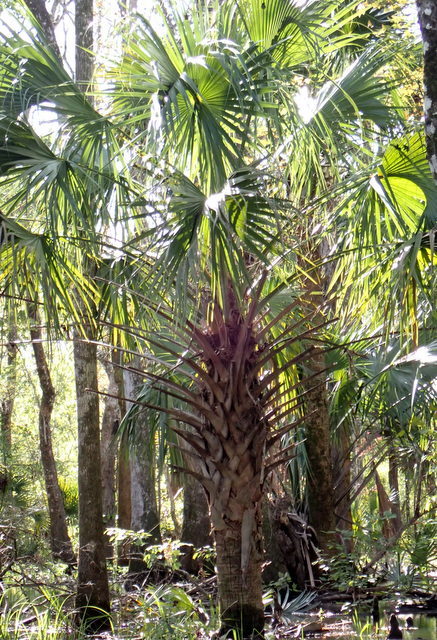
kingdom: Plantae
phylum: Tracheophyta
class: Liliopsida
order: Arecales
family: Arecaceae
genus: Sabal
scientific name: Sabal palmetto
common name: Blue palmetto
